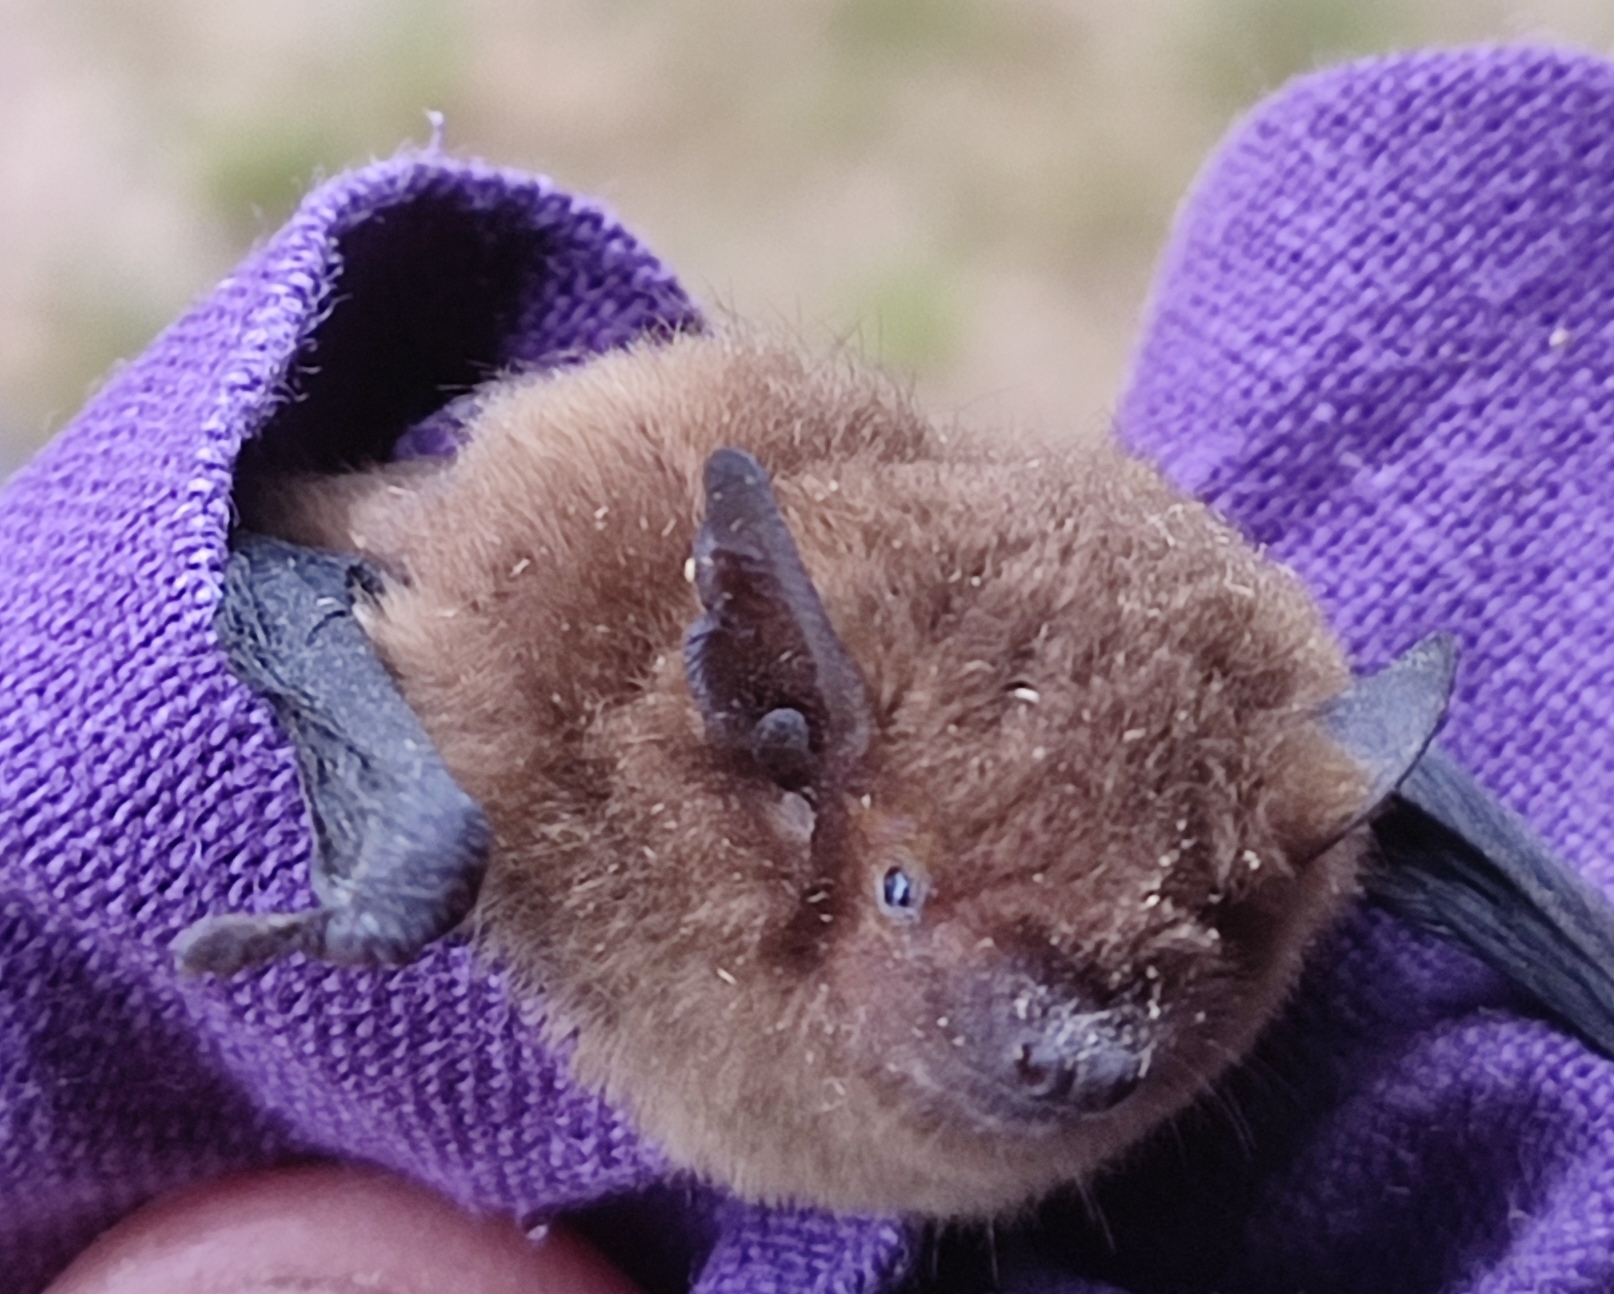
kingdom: Animalia
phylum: Chordata
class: Mammalia
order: Chiroptera
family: Vespertilionidae
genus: Pipistrellus
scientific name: Pipistrellus nathusii
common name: Nathusius's pipistrelle
